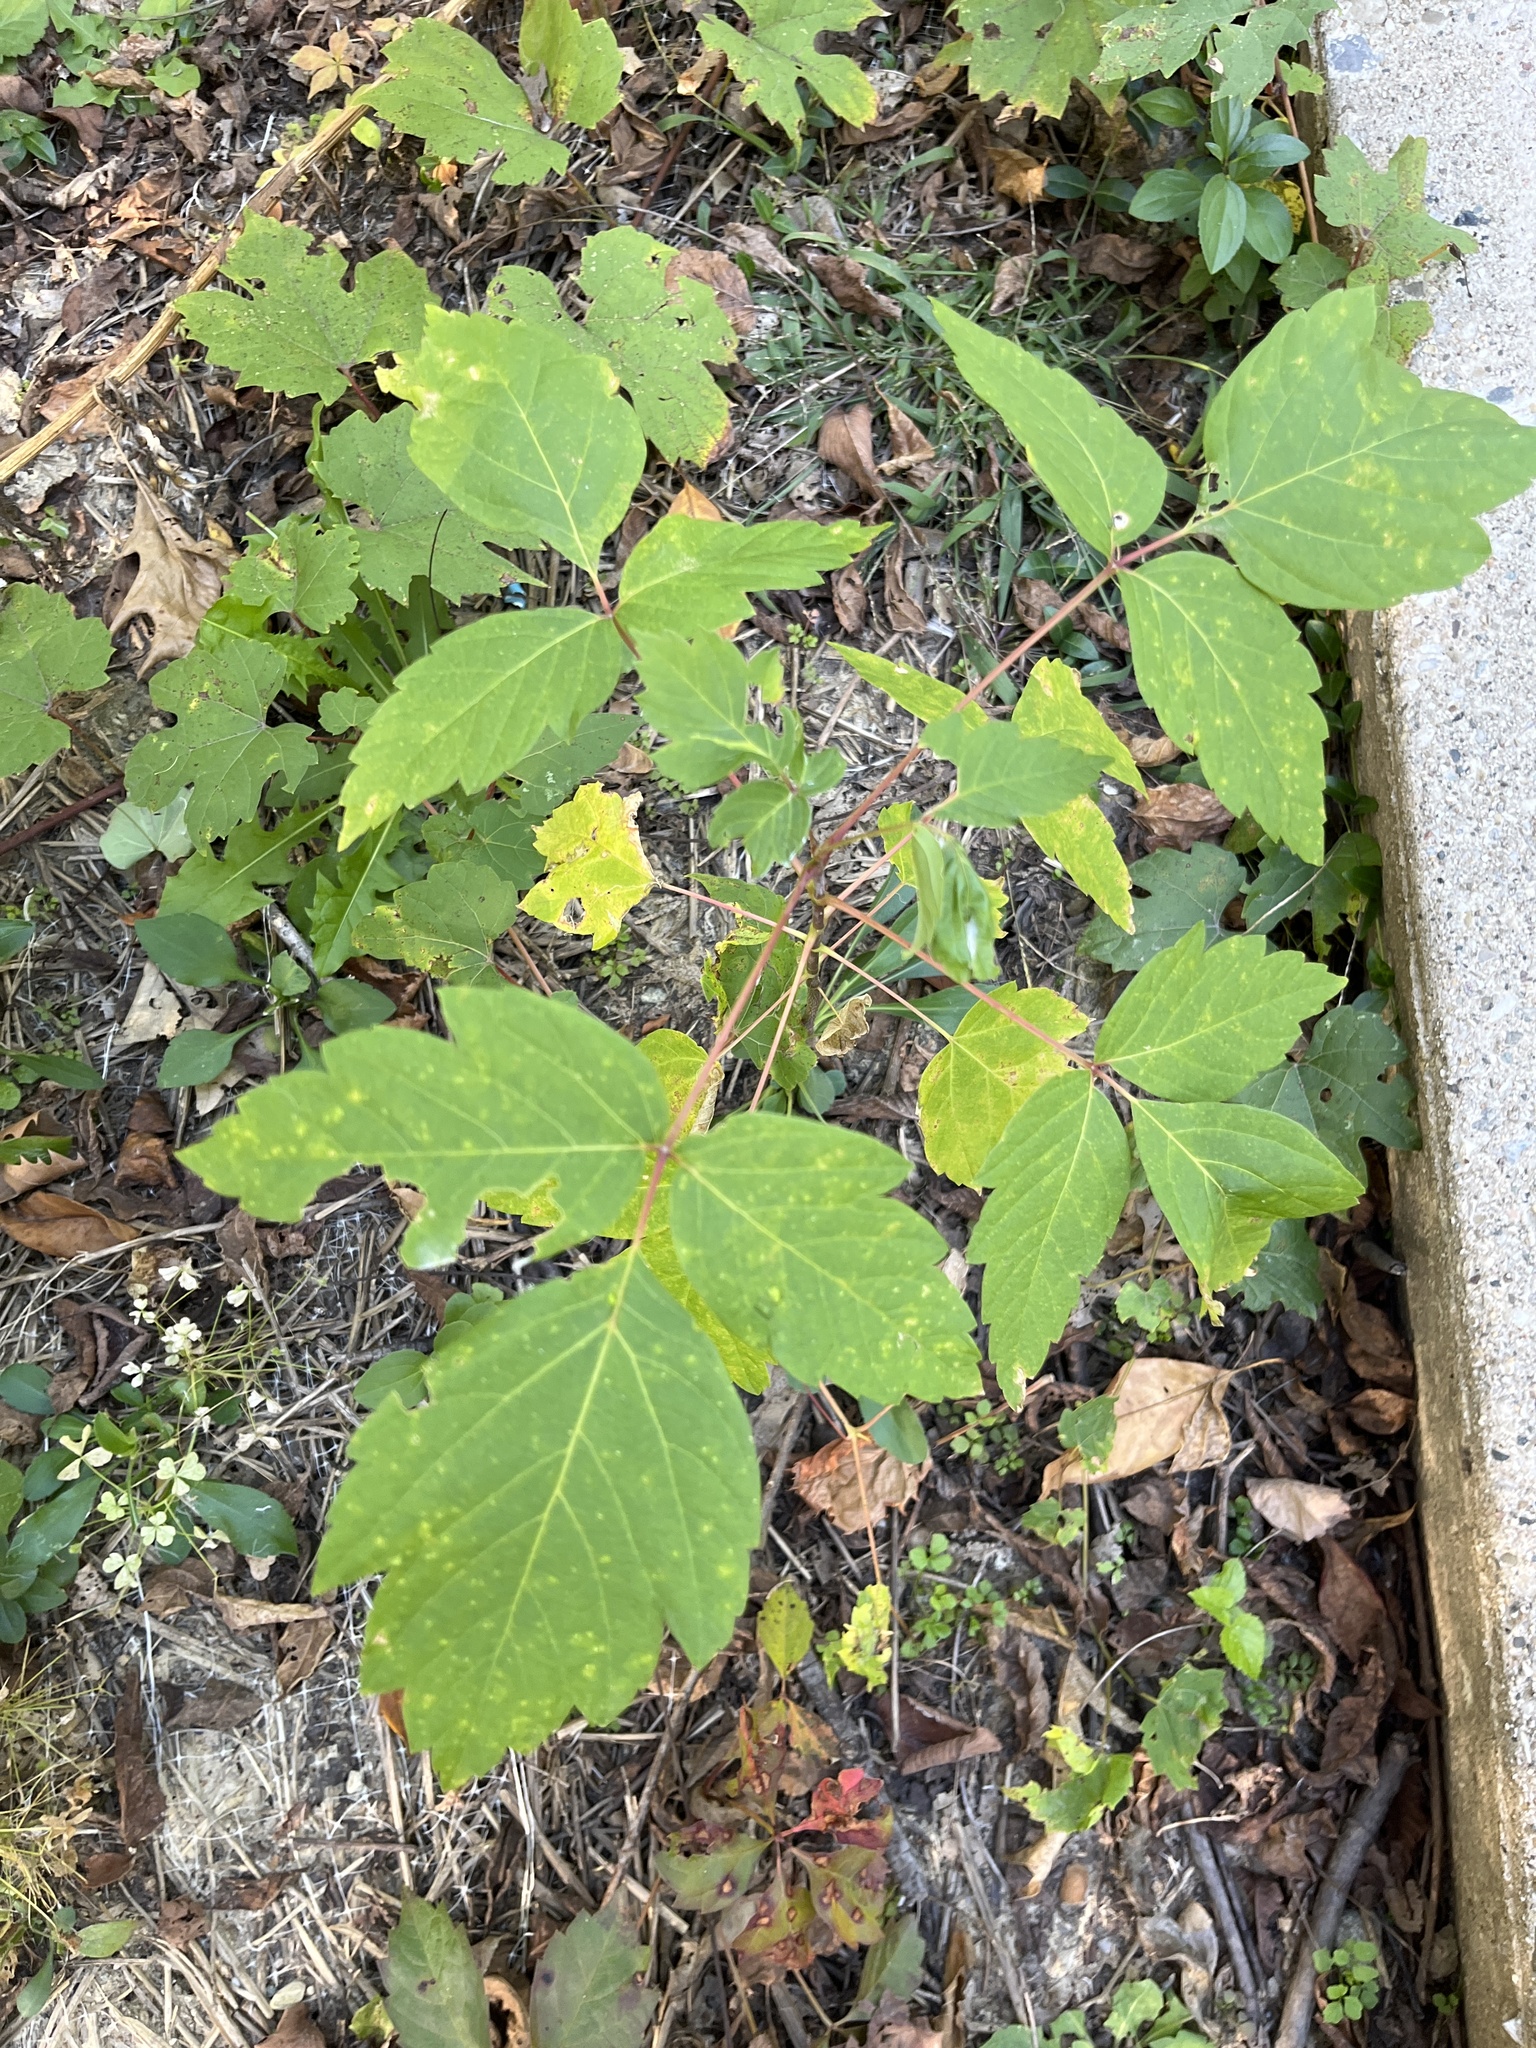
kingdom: Plantae
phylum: Tracheophyta
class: Magnoliopsida
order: Sapindales
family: Sapindaceae
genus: Acer
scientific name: Acer negundo
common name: Ashleaf maple
